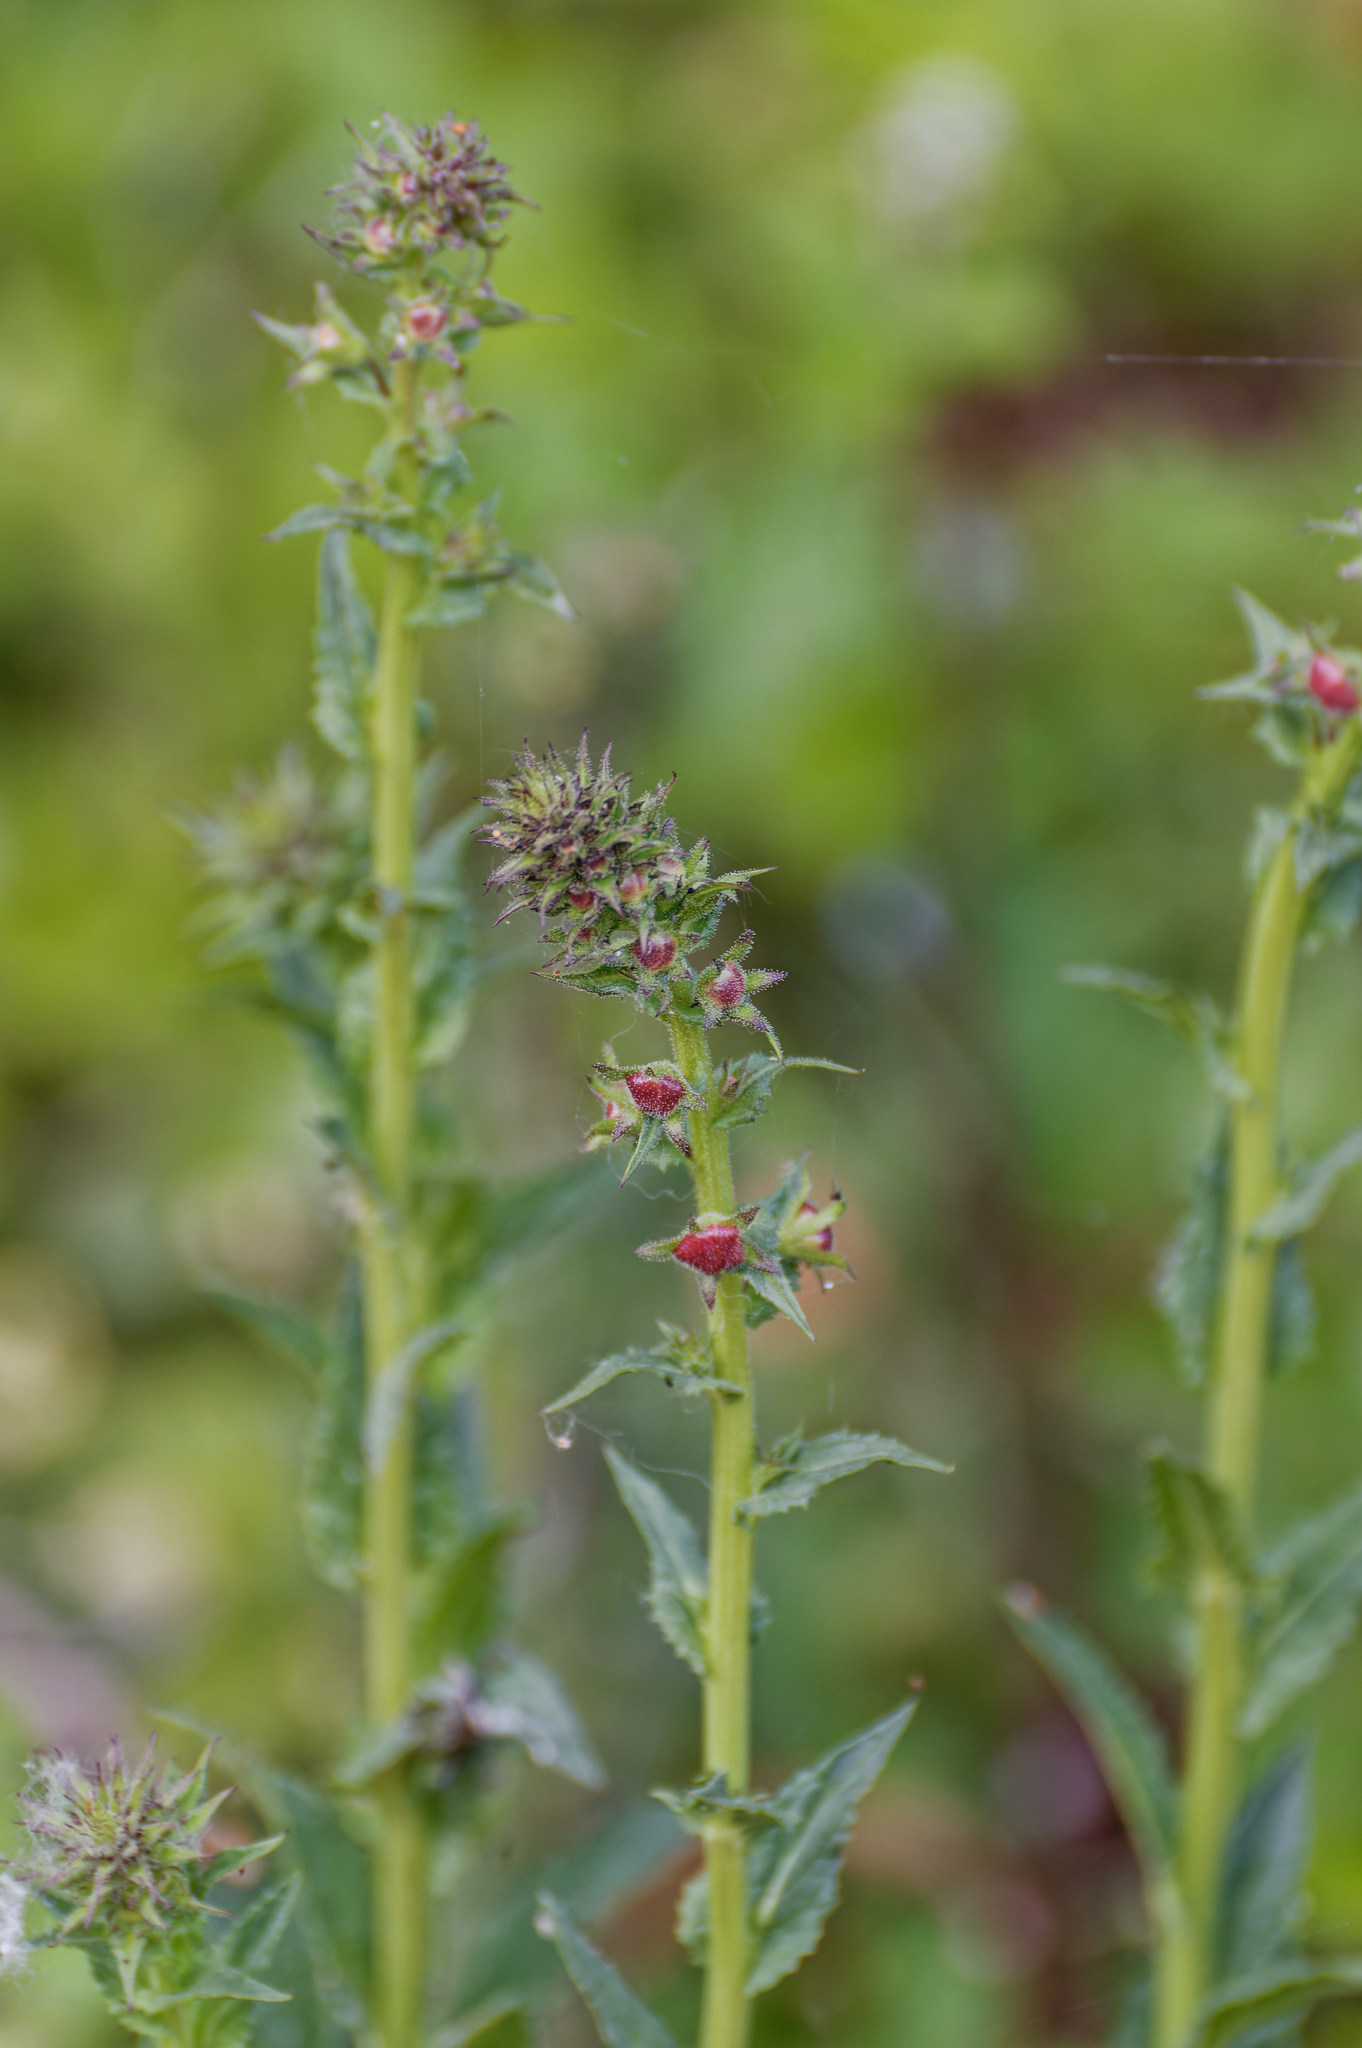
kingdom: Plantae
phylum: Tracheophyta
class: Magnoliopsida
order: Lamiales
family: Scrophulariaceae
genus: Verbascum
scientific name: Verbascum blattaria
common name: Moth mullein
